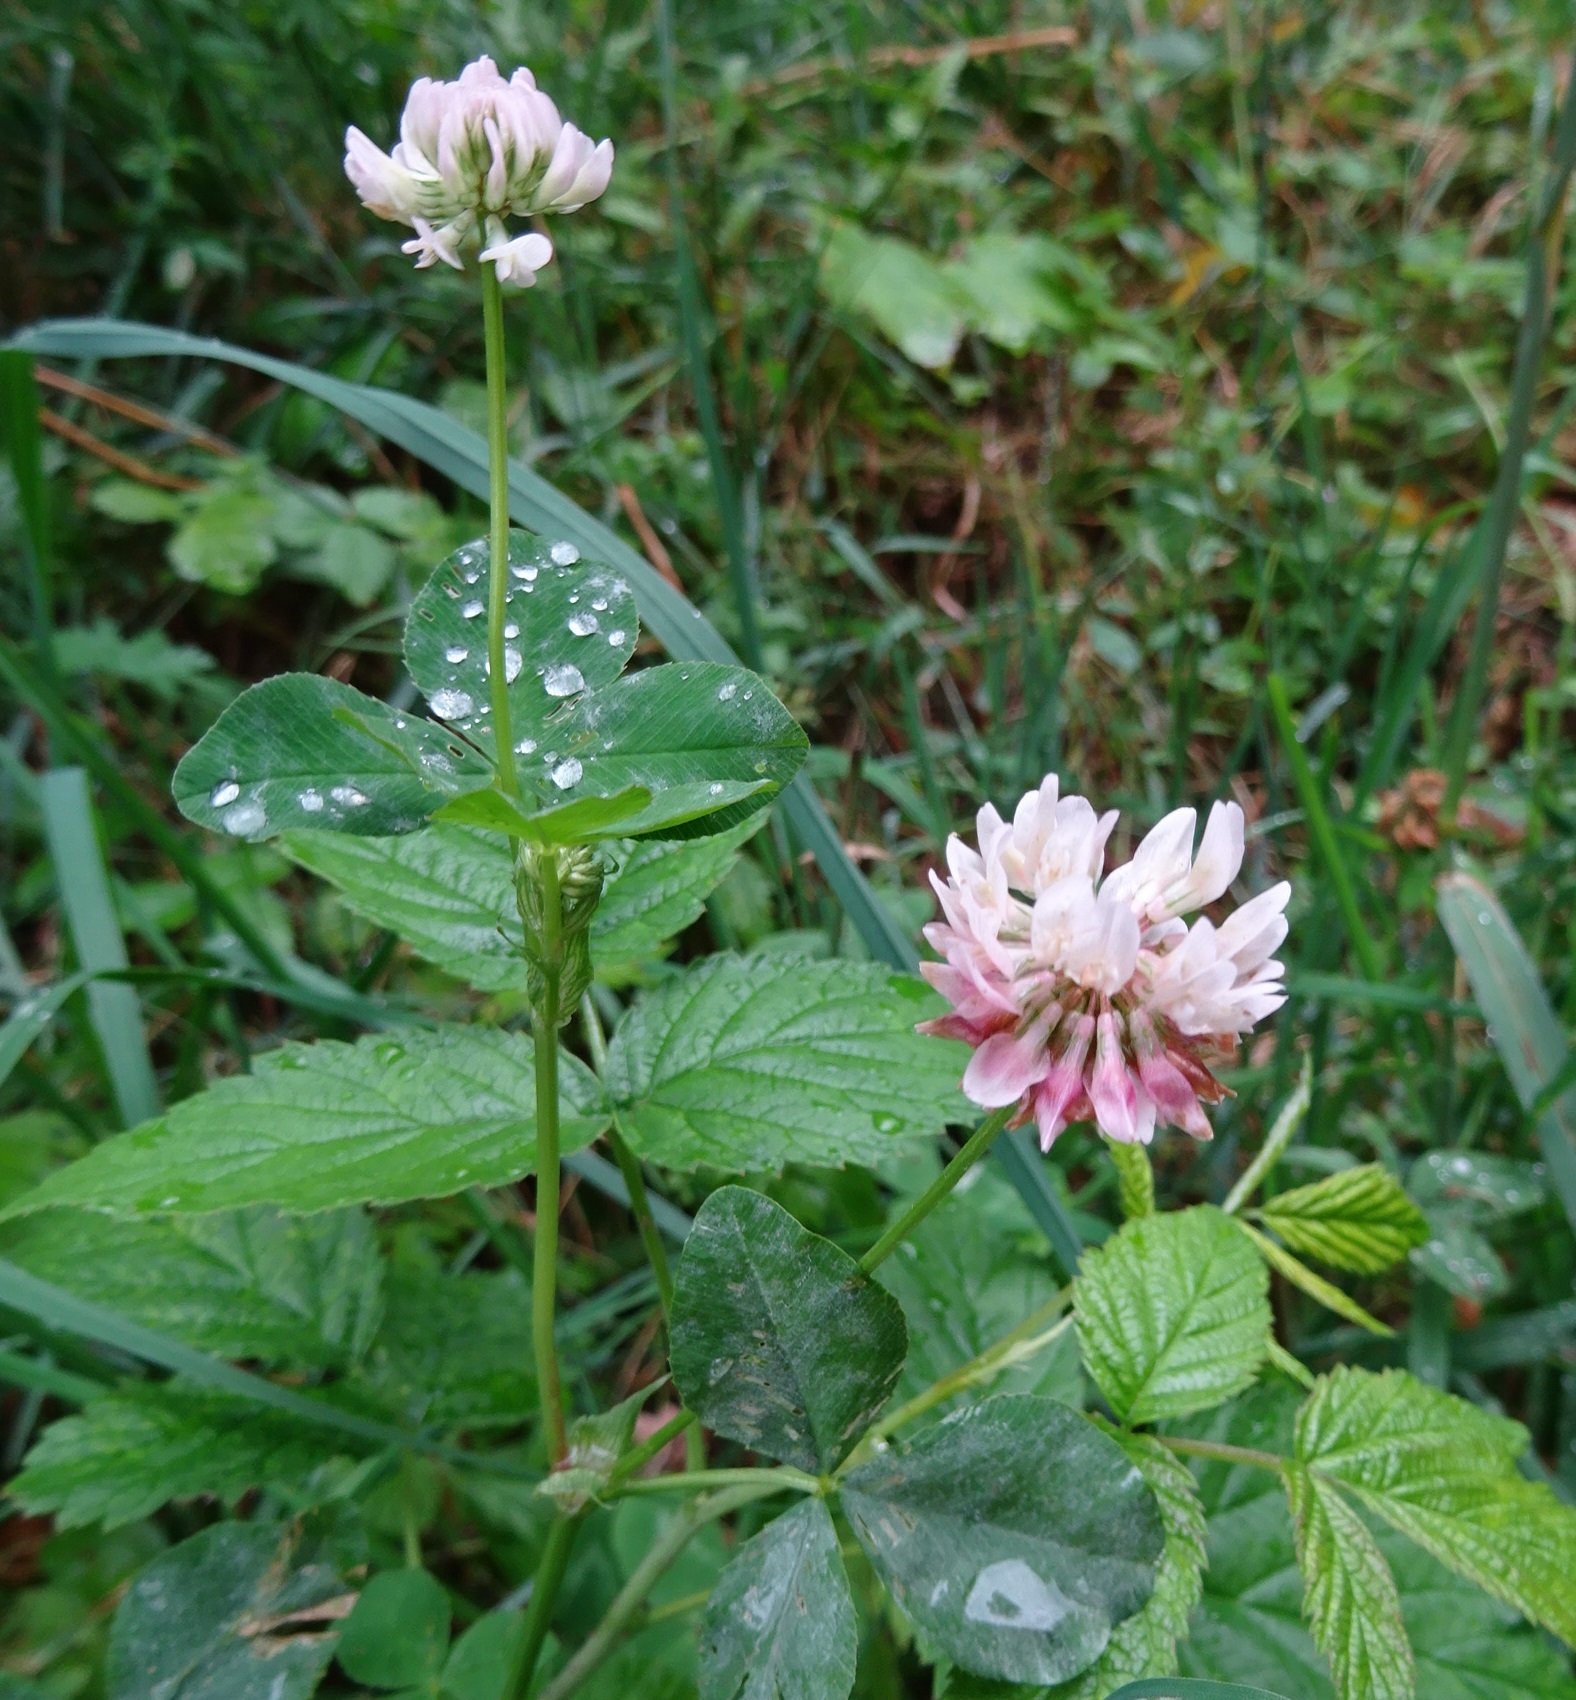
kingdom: Plantae
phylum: Tracheophyta
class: Magnoliopsida
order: Fabales
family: Fabaceae
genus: Trifolium
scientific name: Trifolium hybridum
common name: Alsike clover
